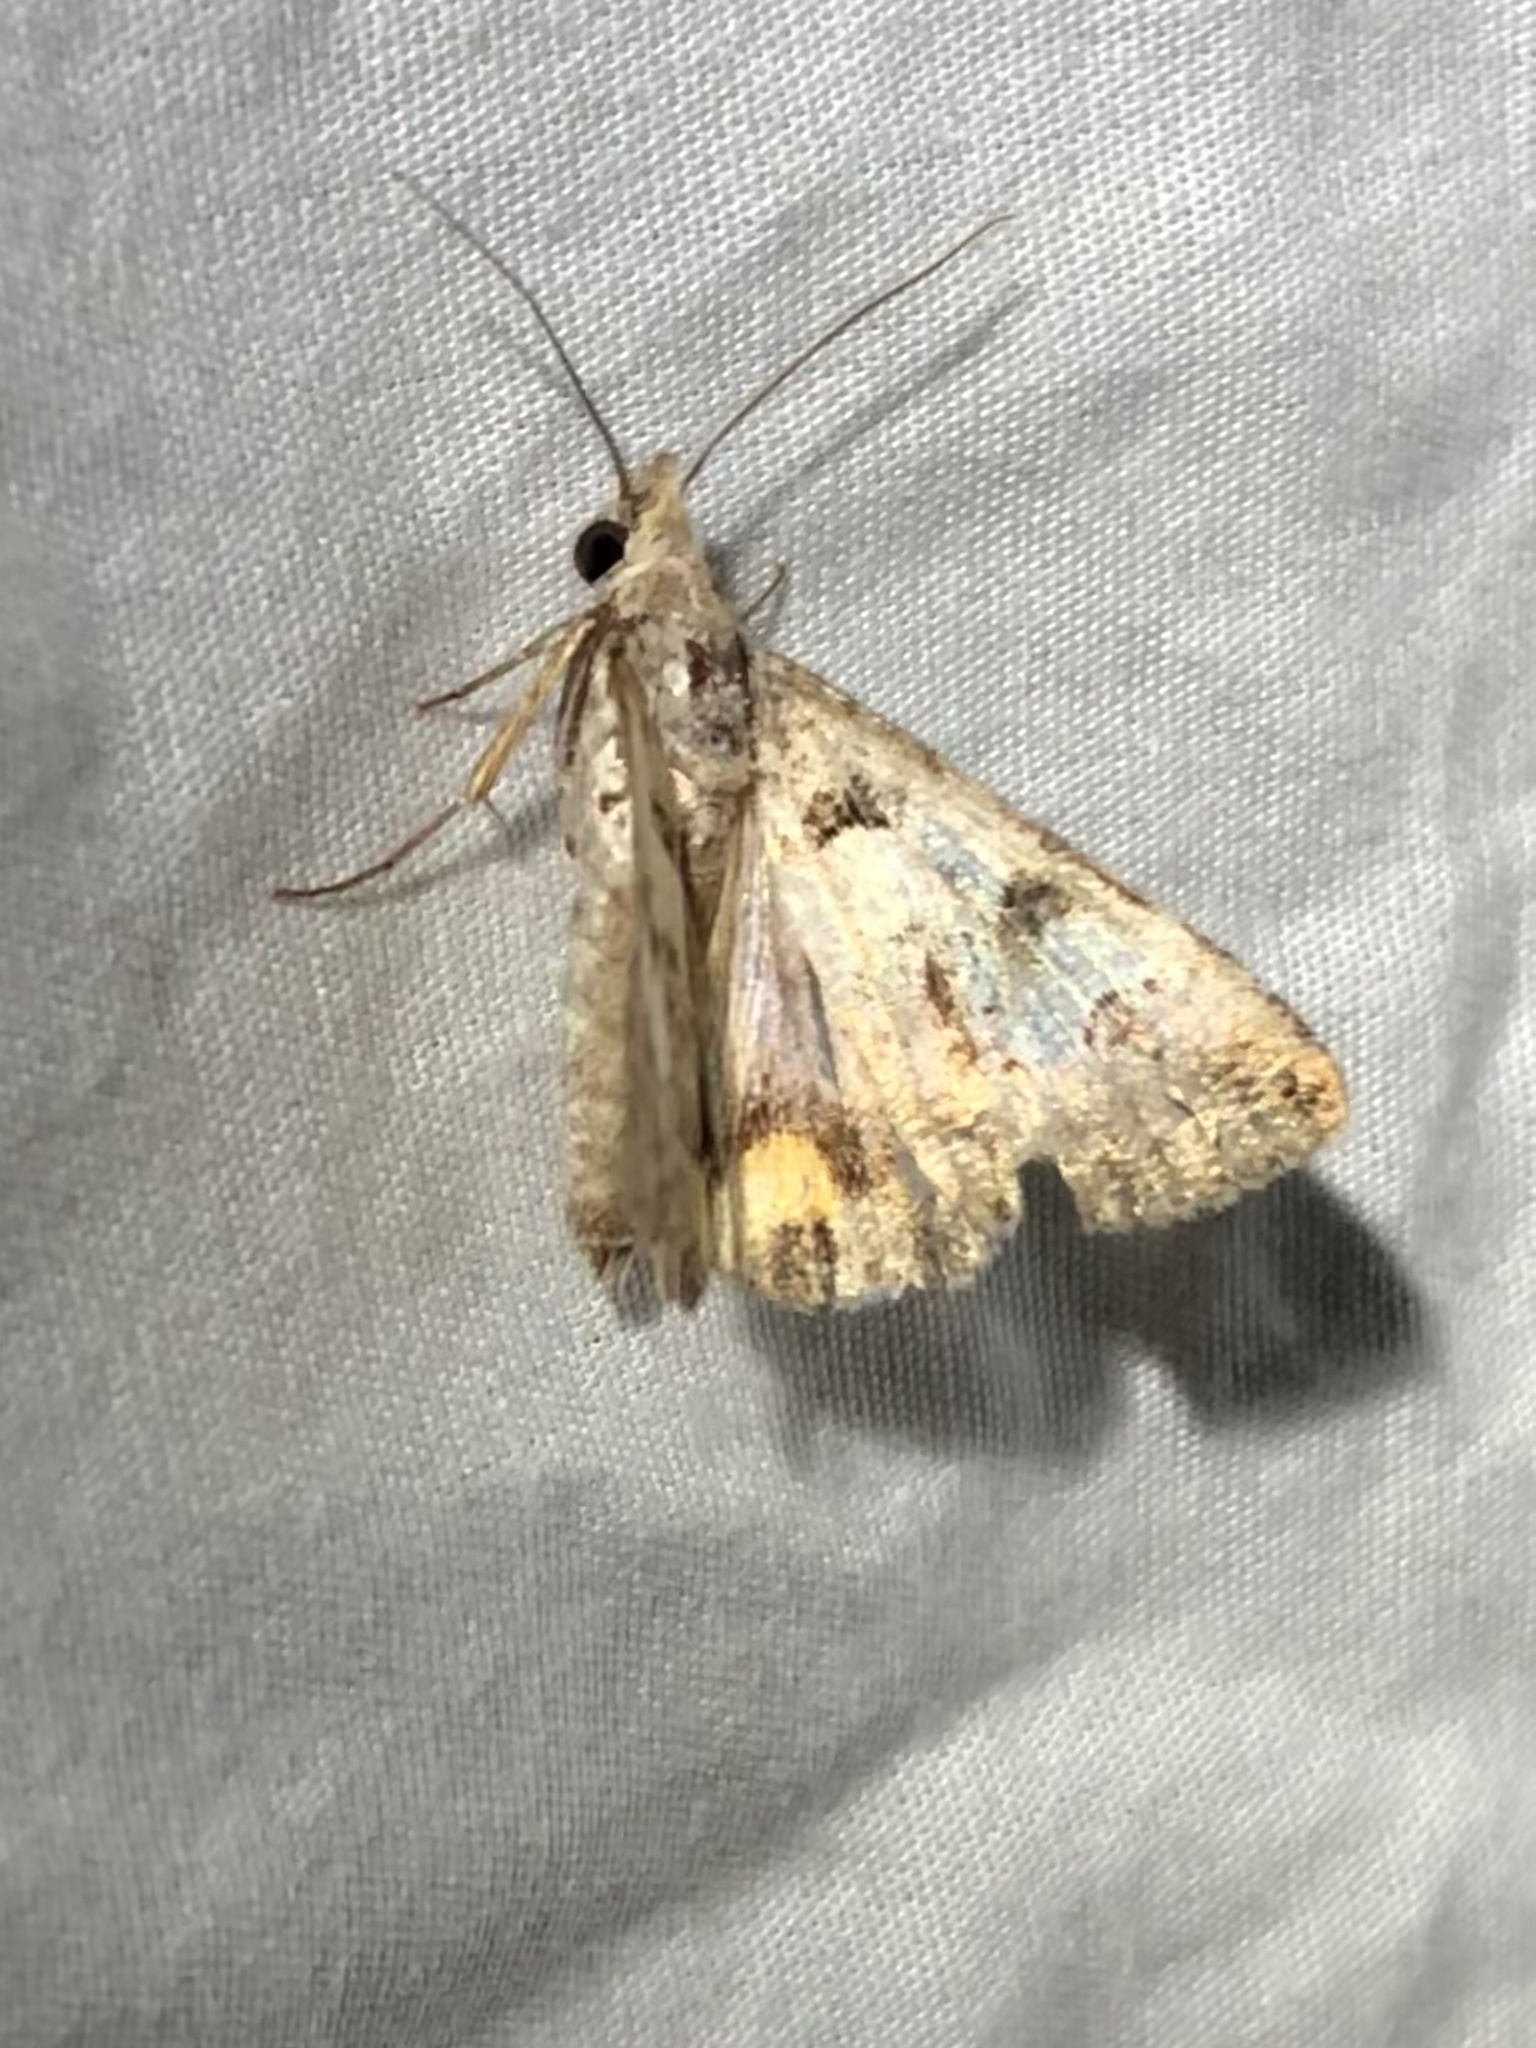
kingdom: Animalia
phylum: Arthropoda
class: Insecta
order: Lepidoptera
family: Erebidae
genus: Bulia
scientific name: Bulia deducta
